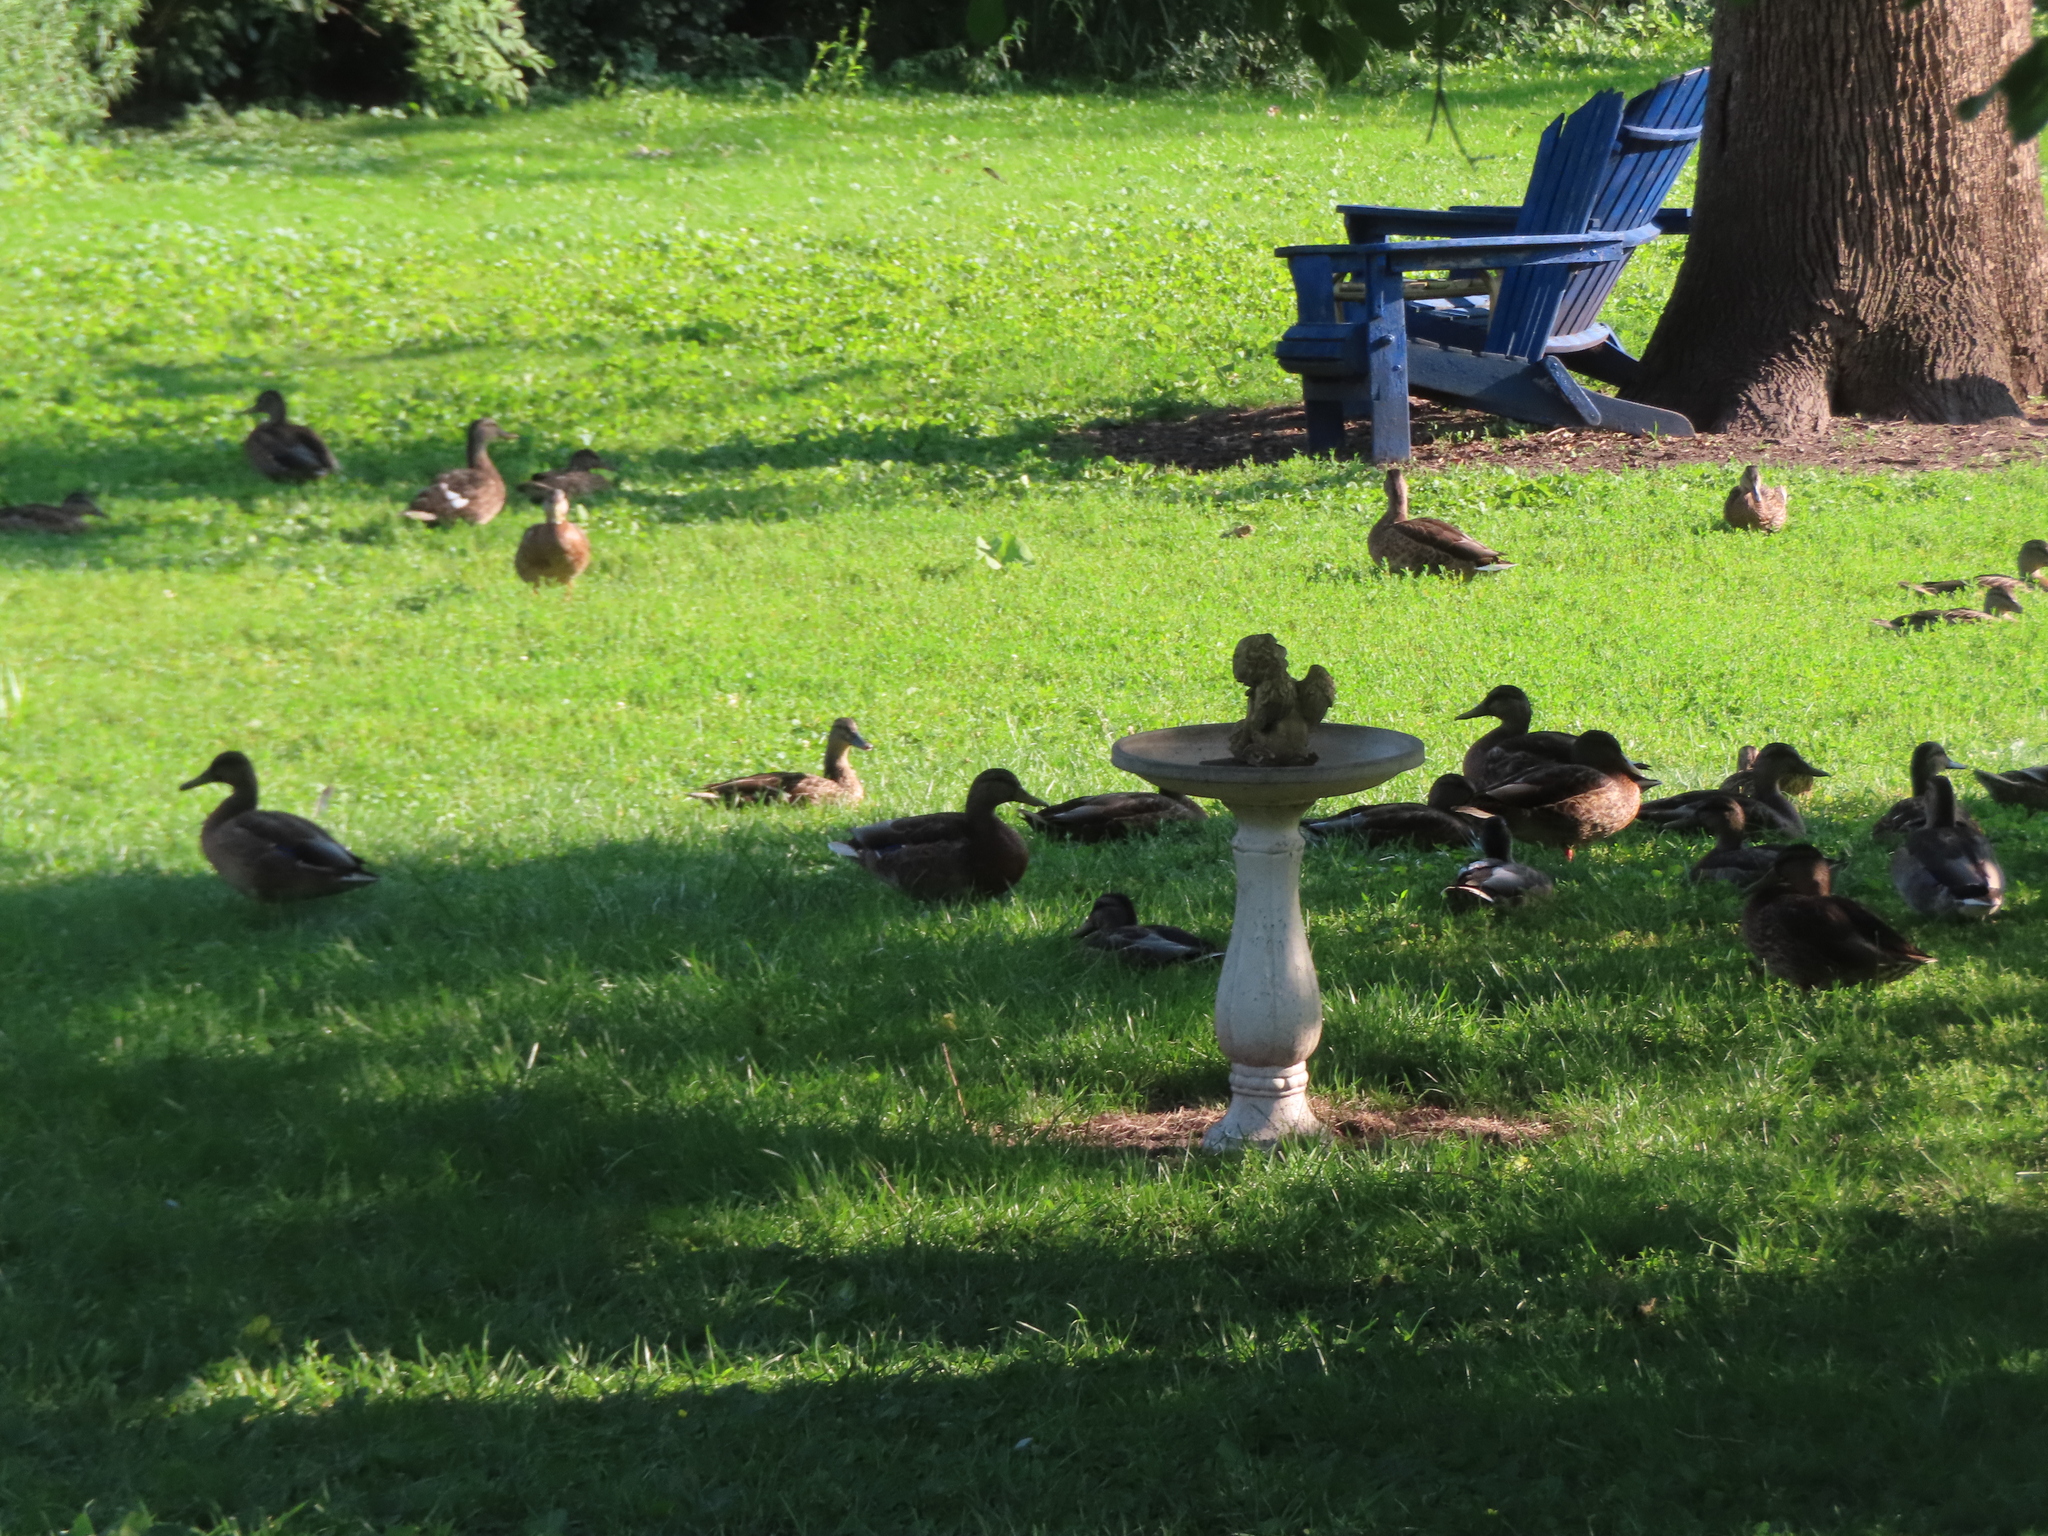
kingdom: Animalia
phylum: Chordata
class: Aves
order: Anseriformes
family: Anatidae
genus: Anas
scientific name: Anas platyrhynchos
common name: Mallard
